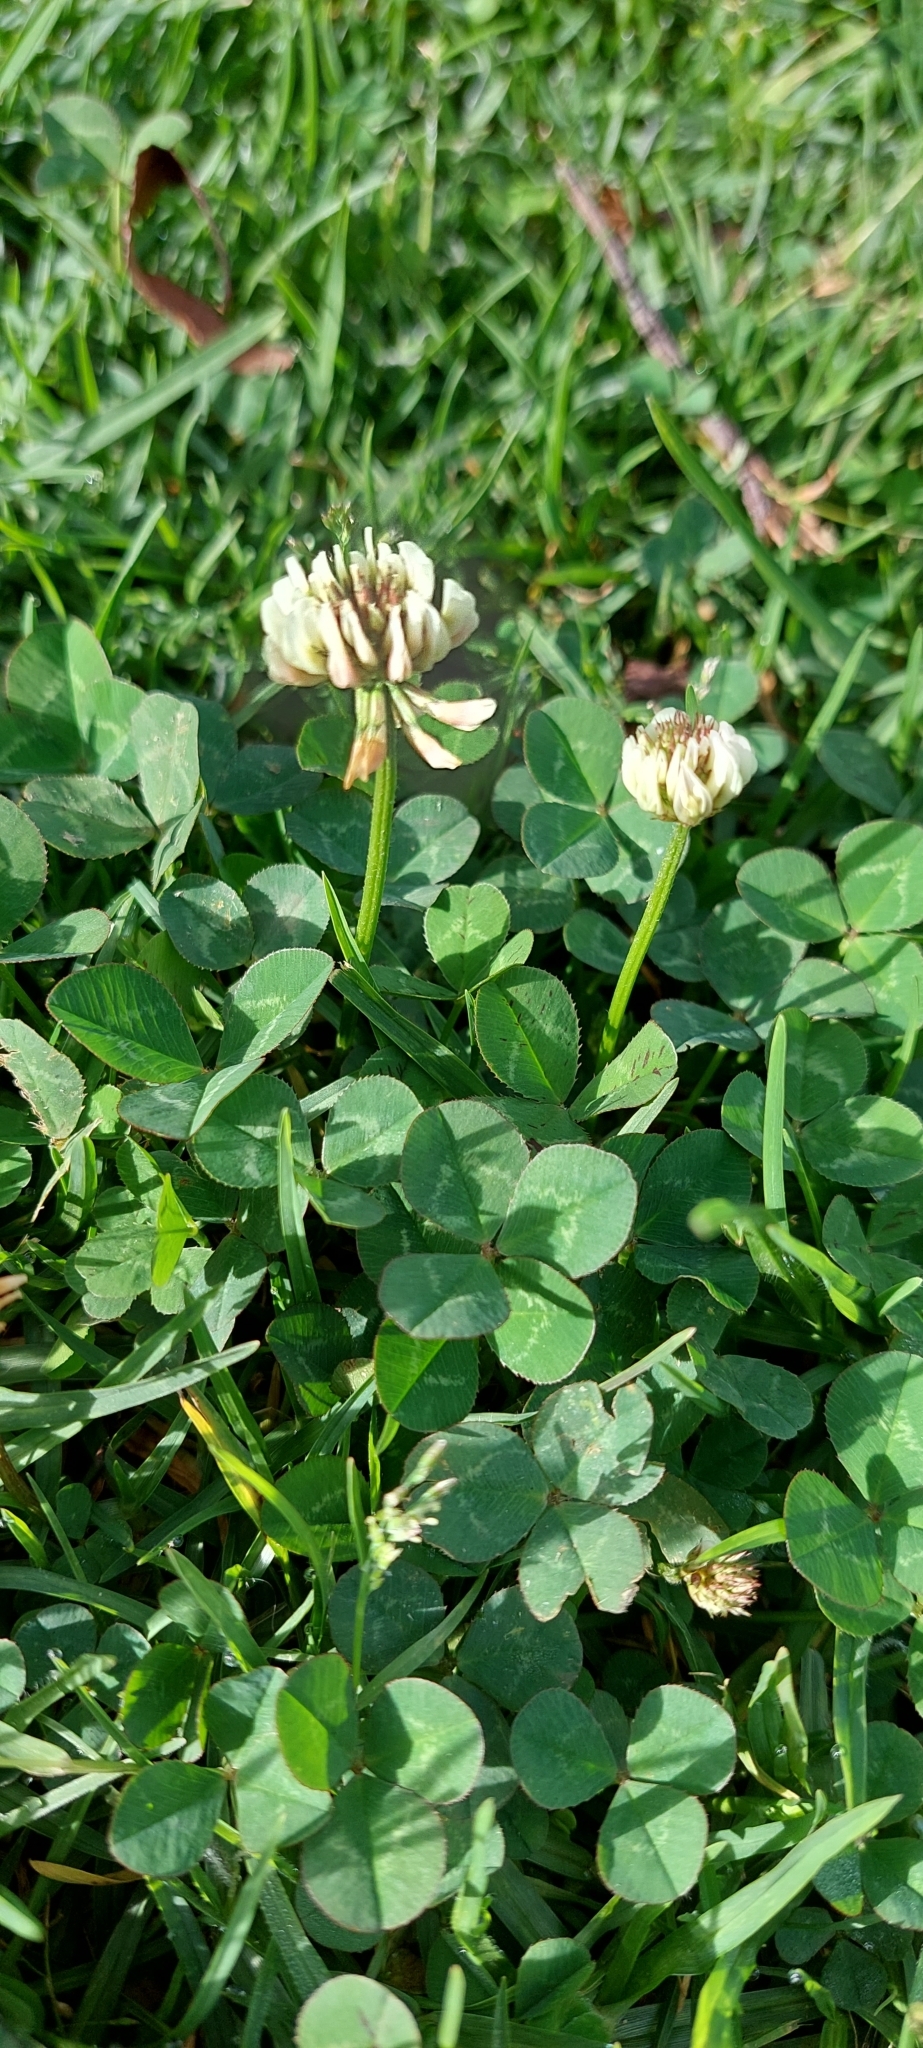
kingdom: Plantae
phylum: Tracheophyta
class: Magnoliopsida
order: Fabales
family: Fabaceae
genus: Trifolium
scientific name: Trifolium repens
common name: White clover
